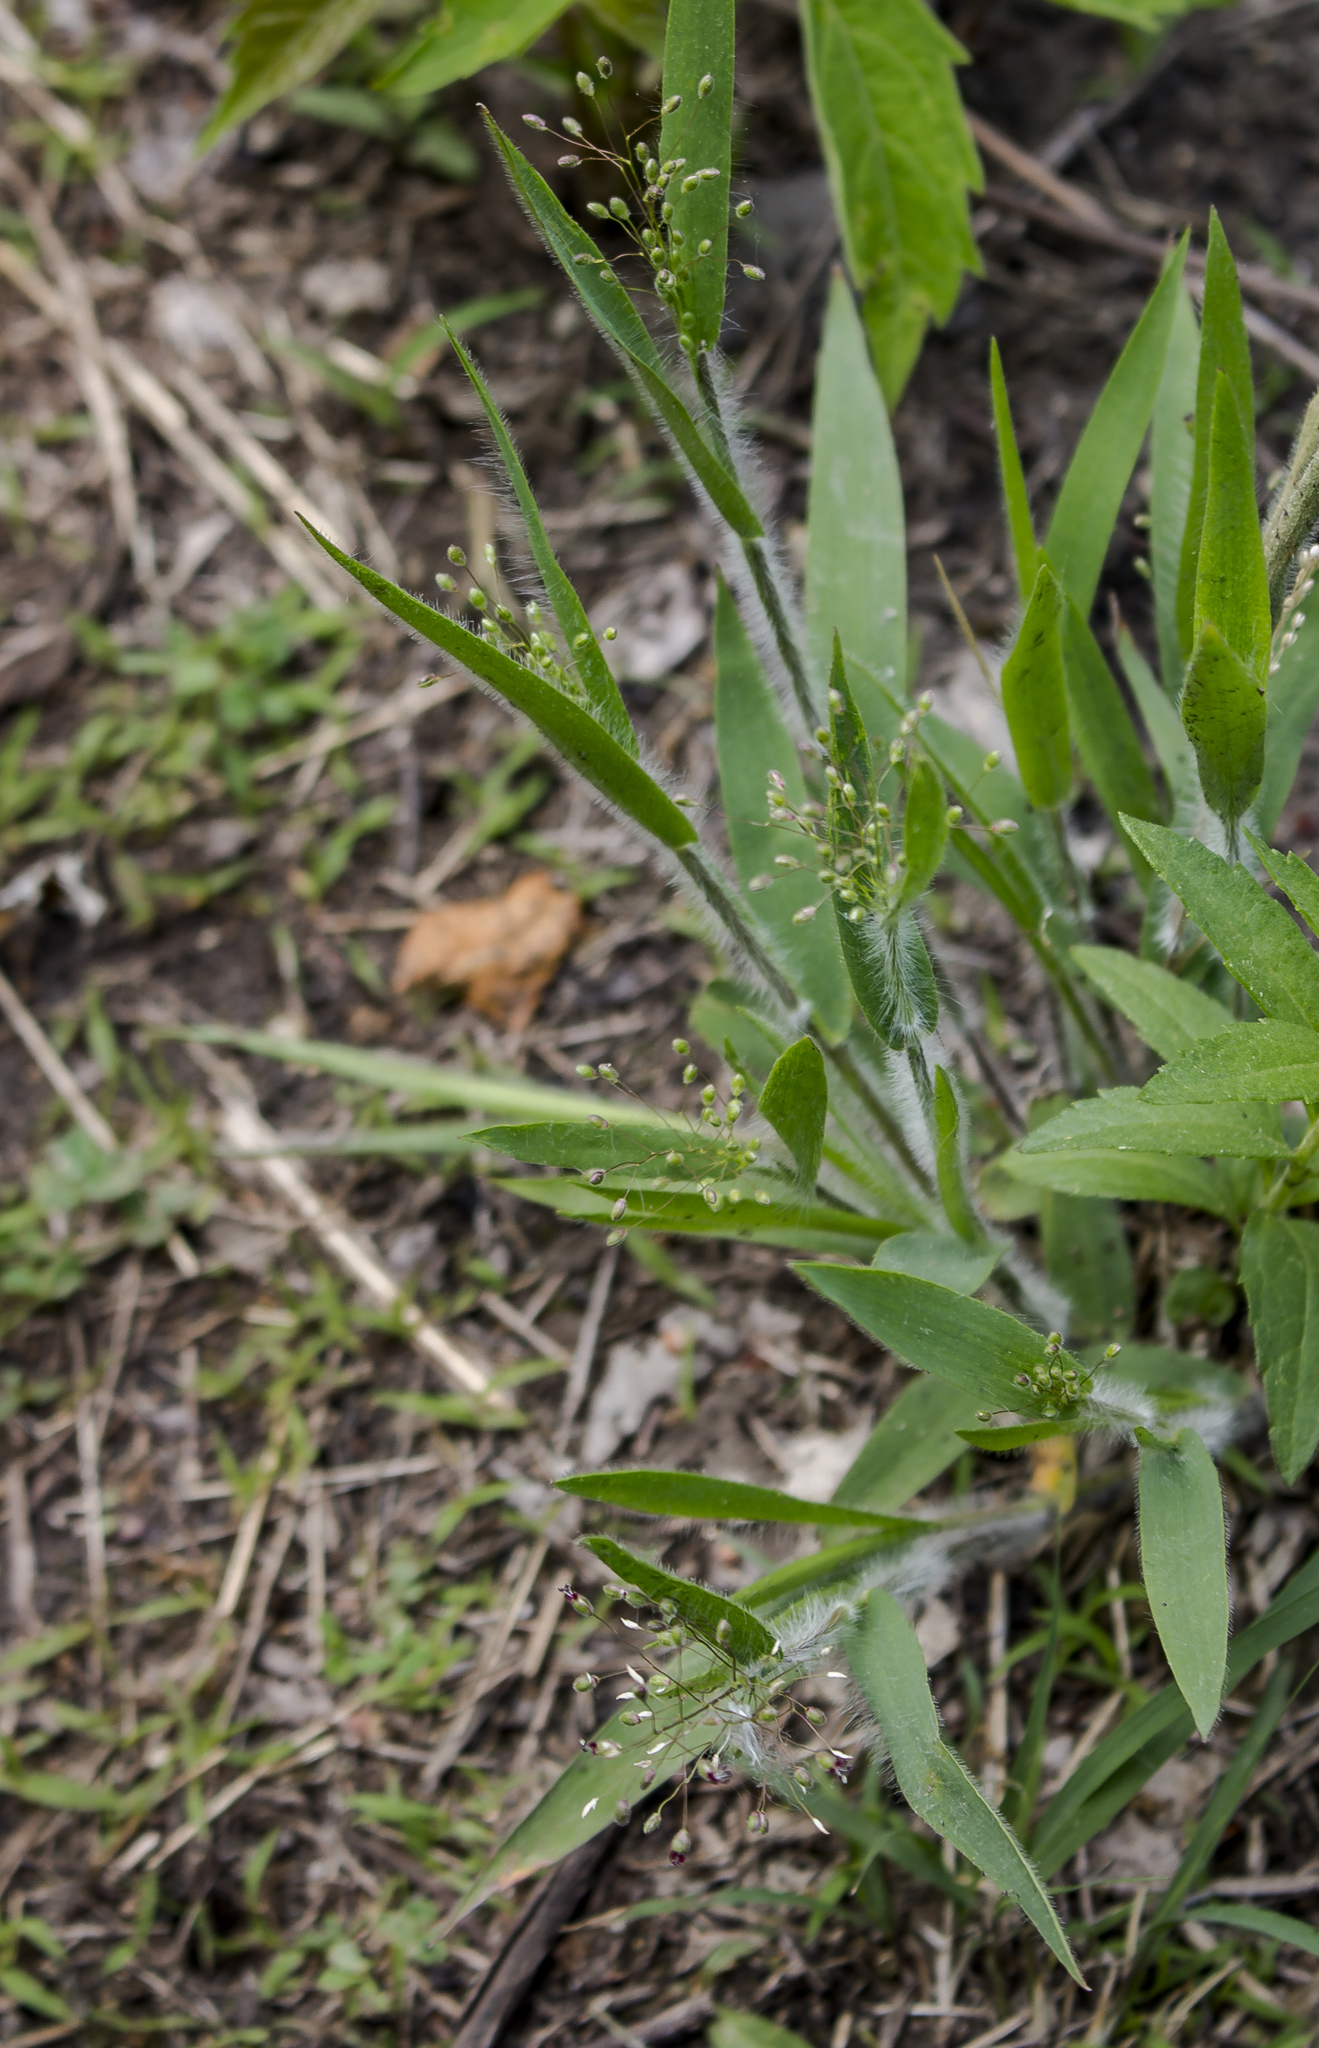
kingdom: Plantae
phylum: Tracheophyta
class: Liliopsida
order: Poales
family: Poaceae
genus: Dichanthelium
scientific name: Dichanthelium villosissimum
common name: White-haired panicgrass
